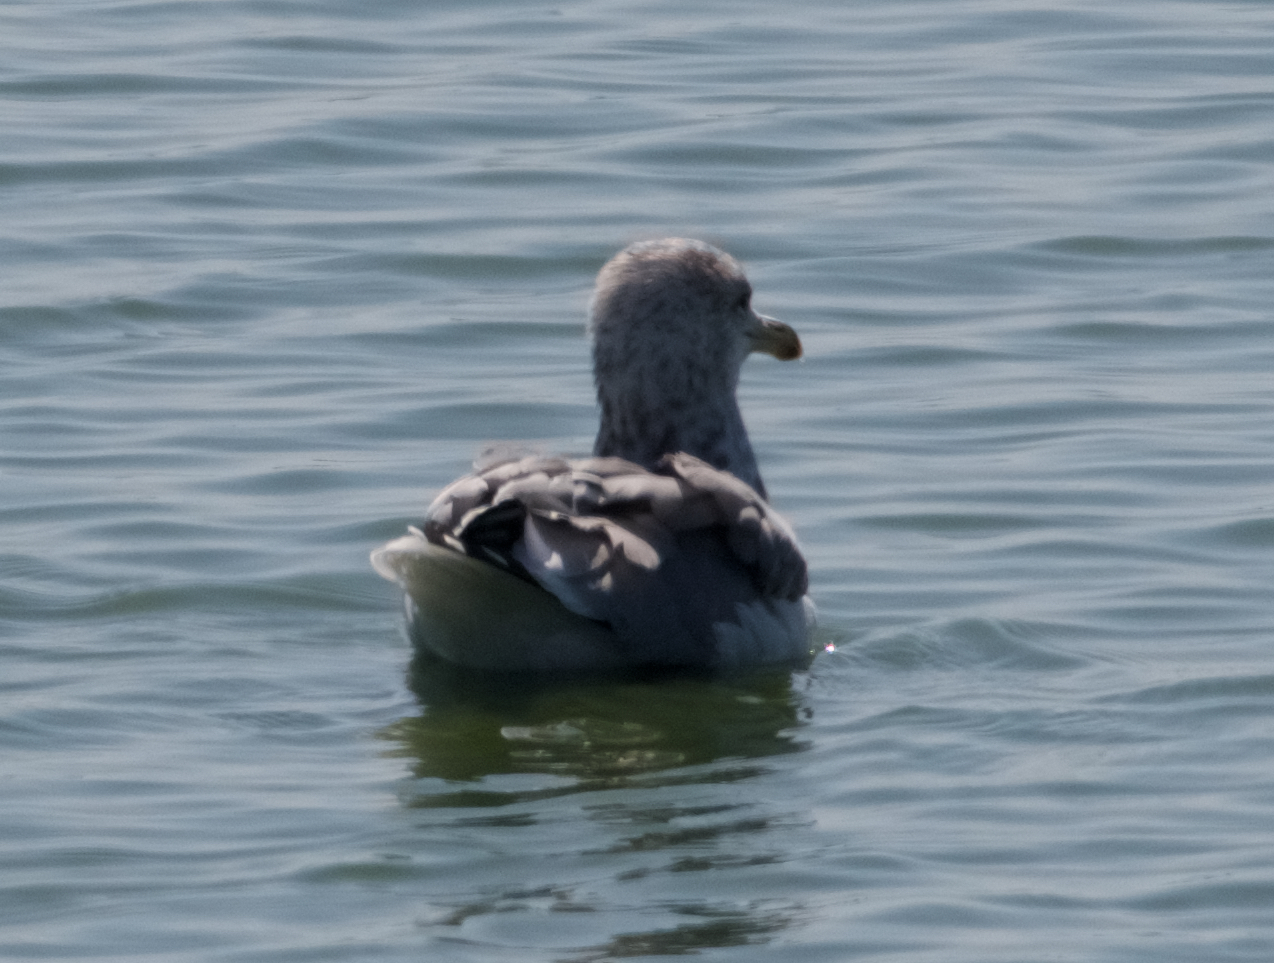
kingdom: Animalia
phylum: Chordata
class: Aves
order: Charadriiformes
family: Laridae
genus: Larus
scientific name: Larus californicus
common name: California gull
